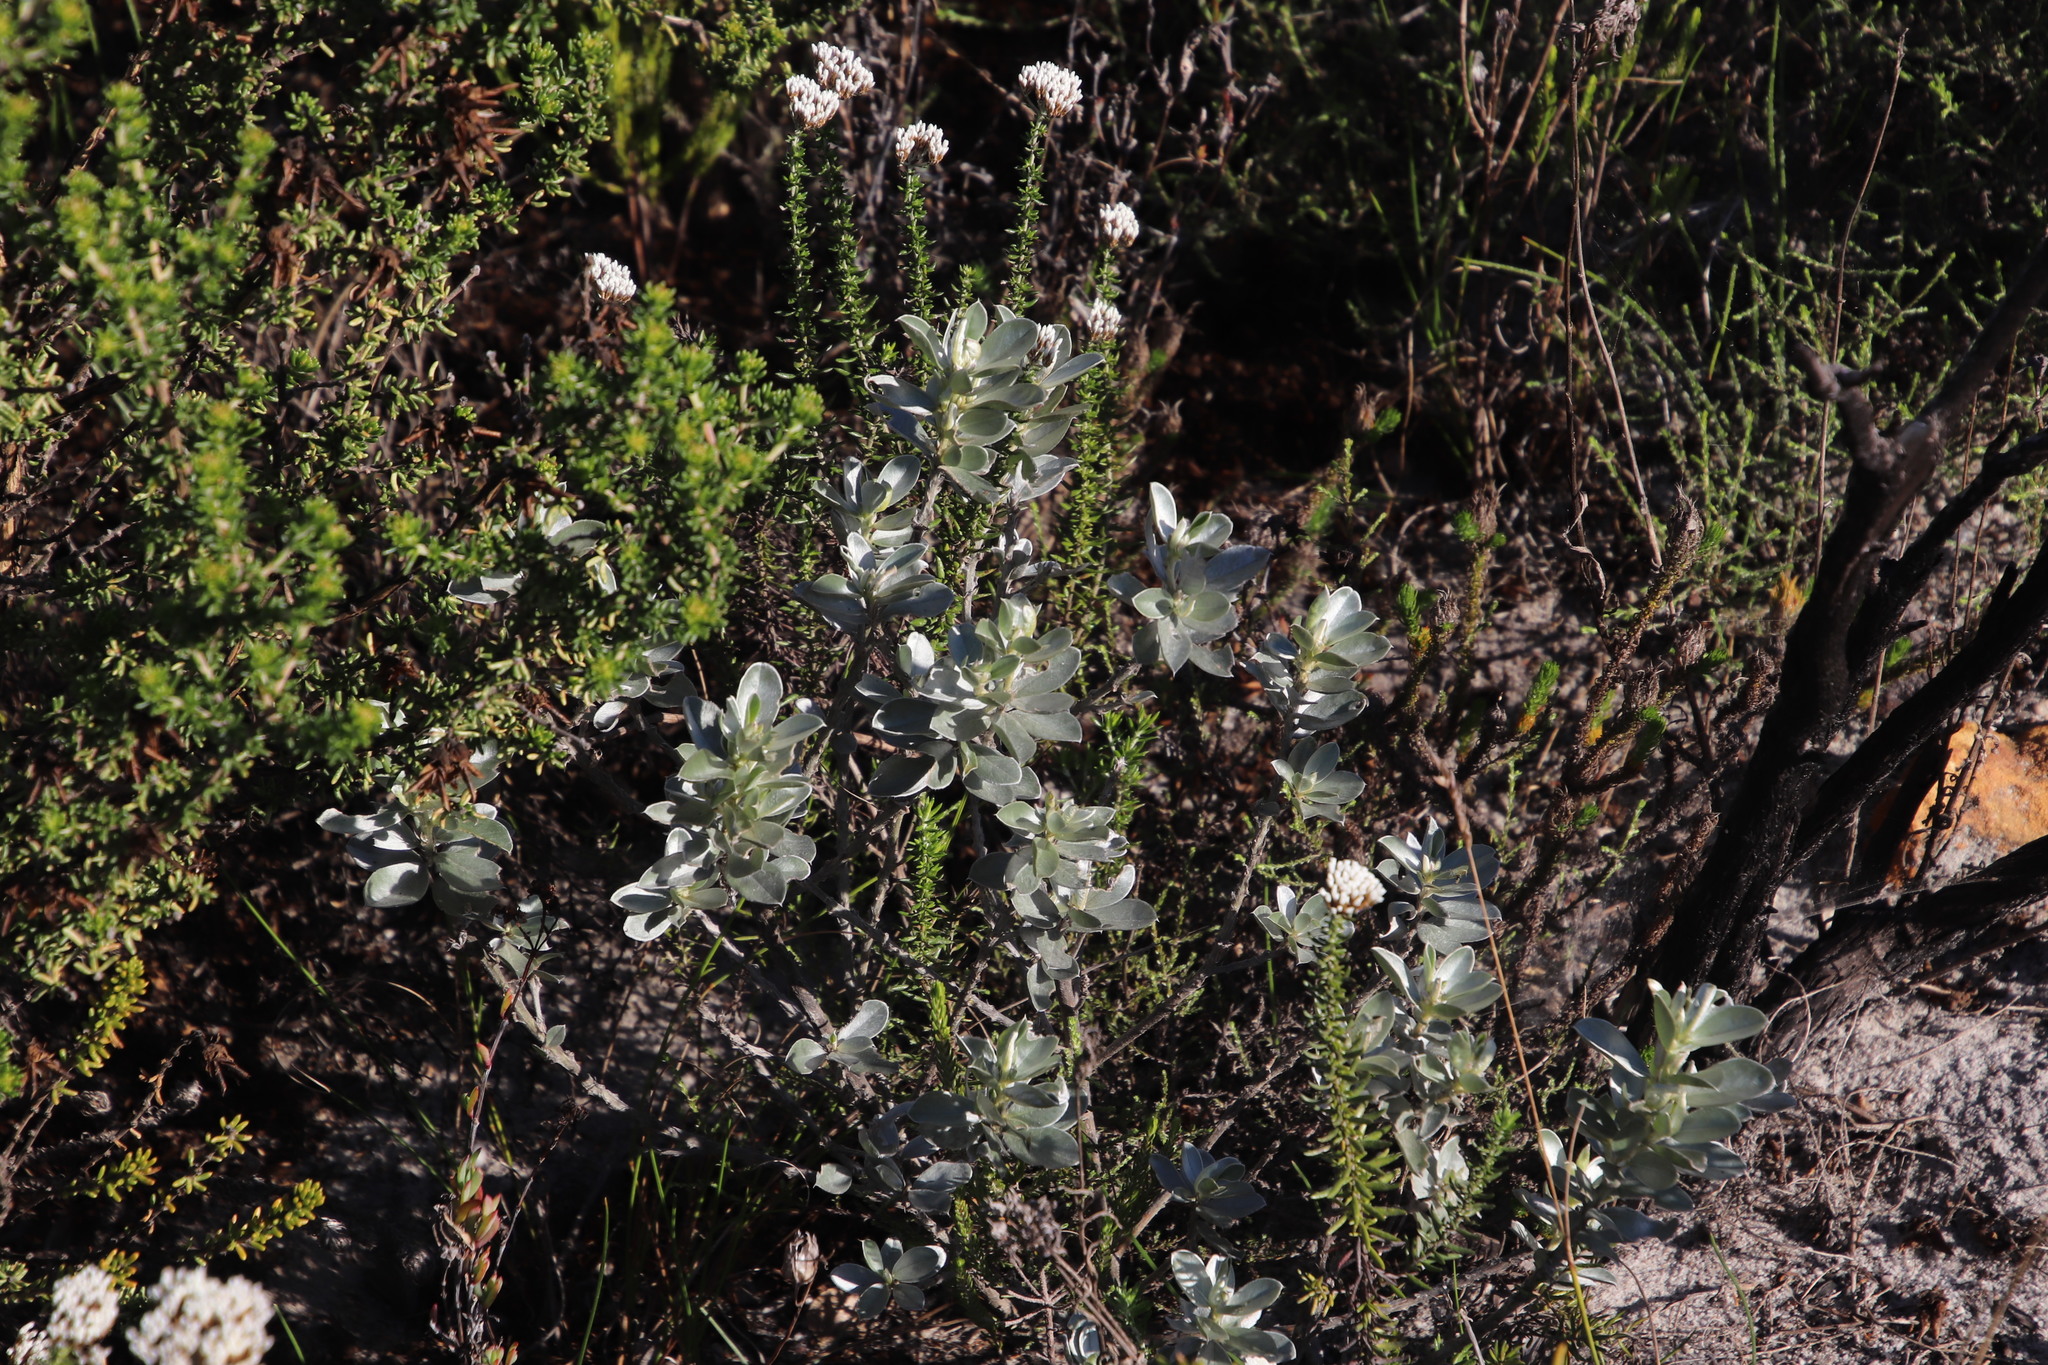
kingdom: Plantae
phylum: Tracheophyta
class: Magnoliopsida
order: Fabales
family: Fabaceae
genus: Podalyria
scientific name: Podalyria sericea
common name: Silver podalyria
